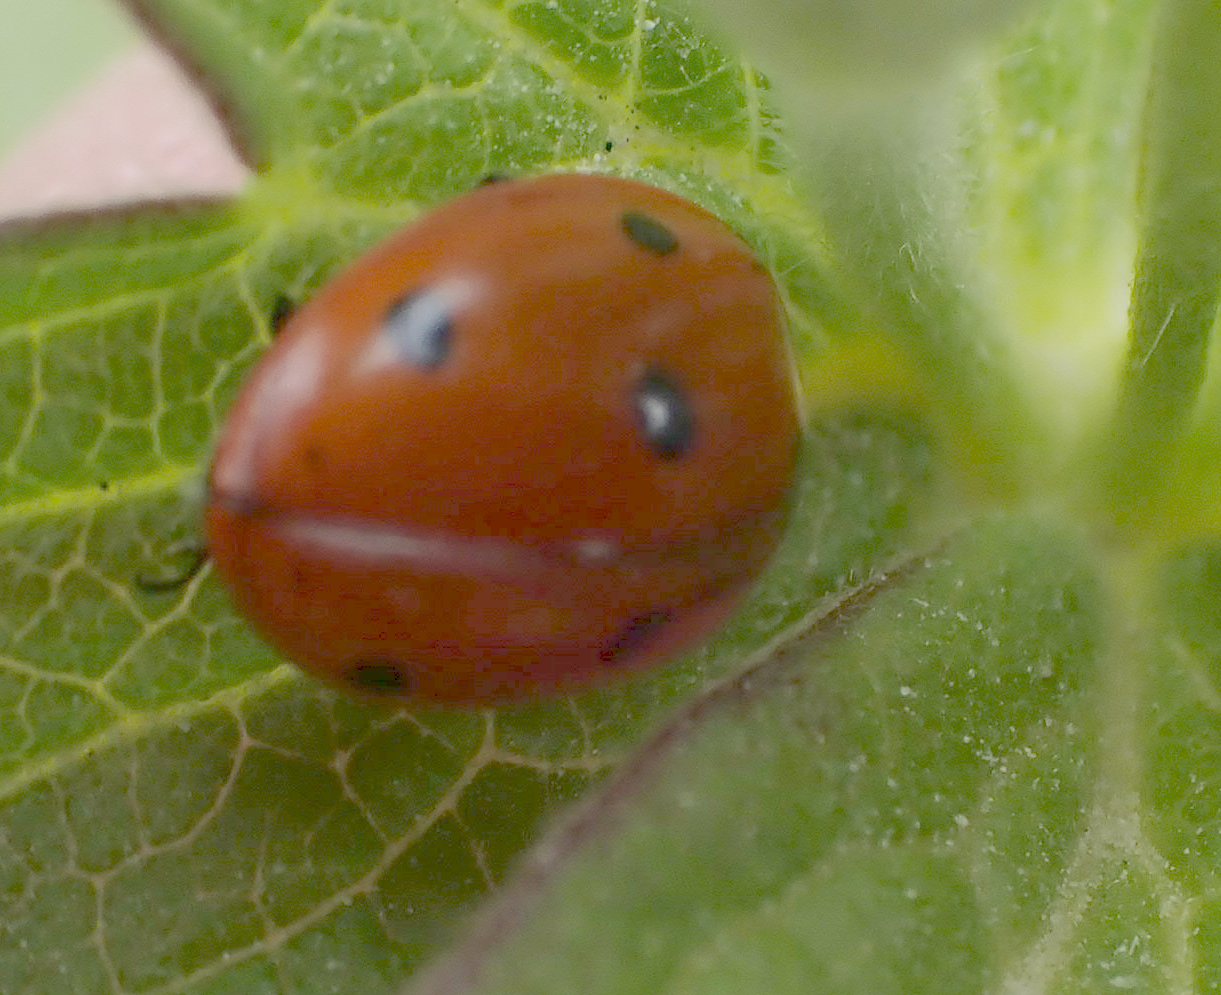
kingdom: Animalia
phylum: Arthropoda
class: Insecta
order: Coleoptera
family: Coccinellidae
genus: Coccinella
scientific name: Coccinella septempunctata
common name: Sevenspotted lady beetle
